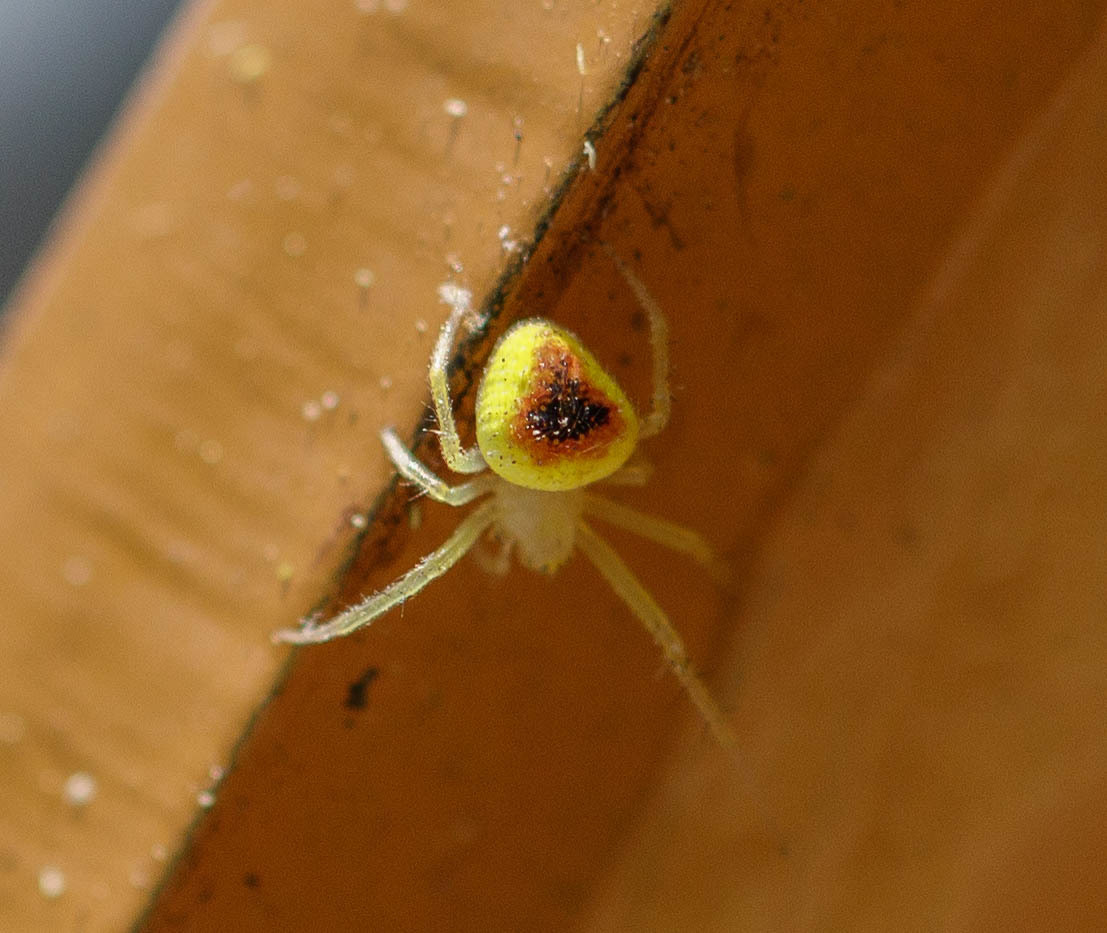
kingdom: Animalia
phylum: Arthropoda
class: Arachnida
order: Araneae
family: Araneidae
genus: Araneus
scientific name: Araneus alboventris
